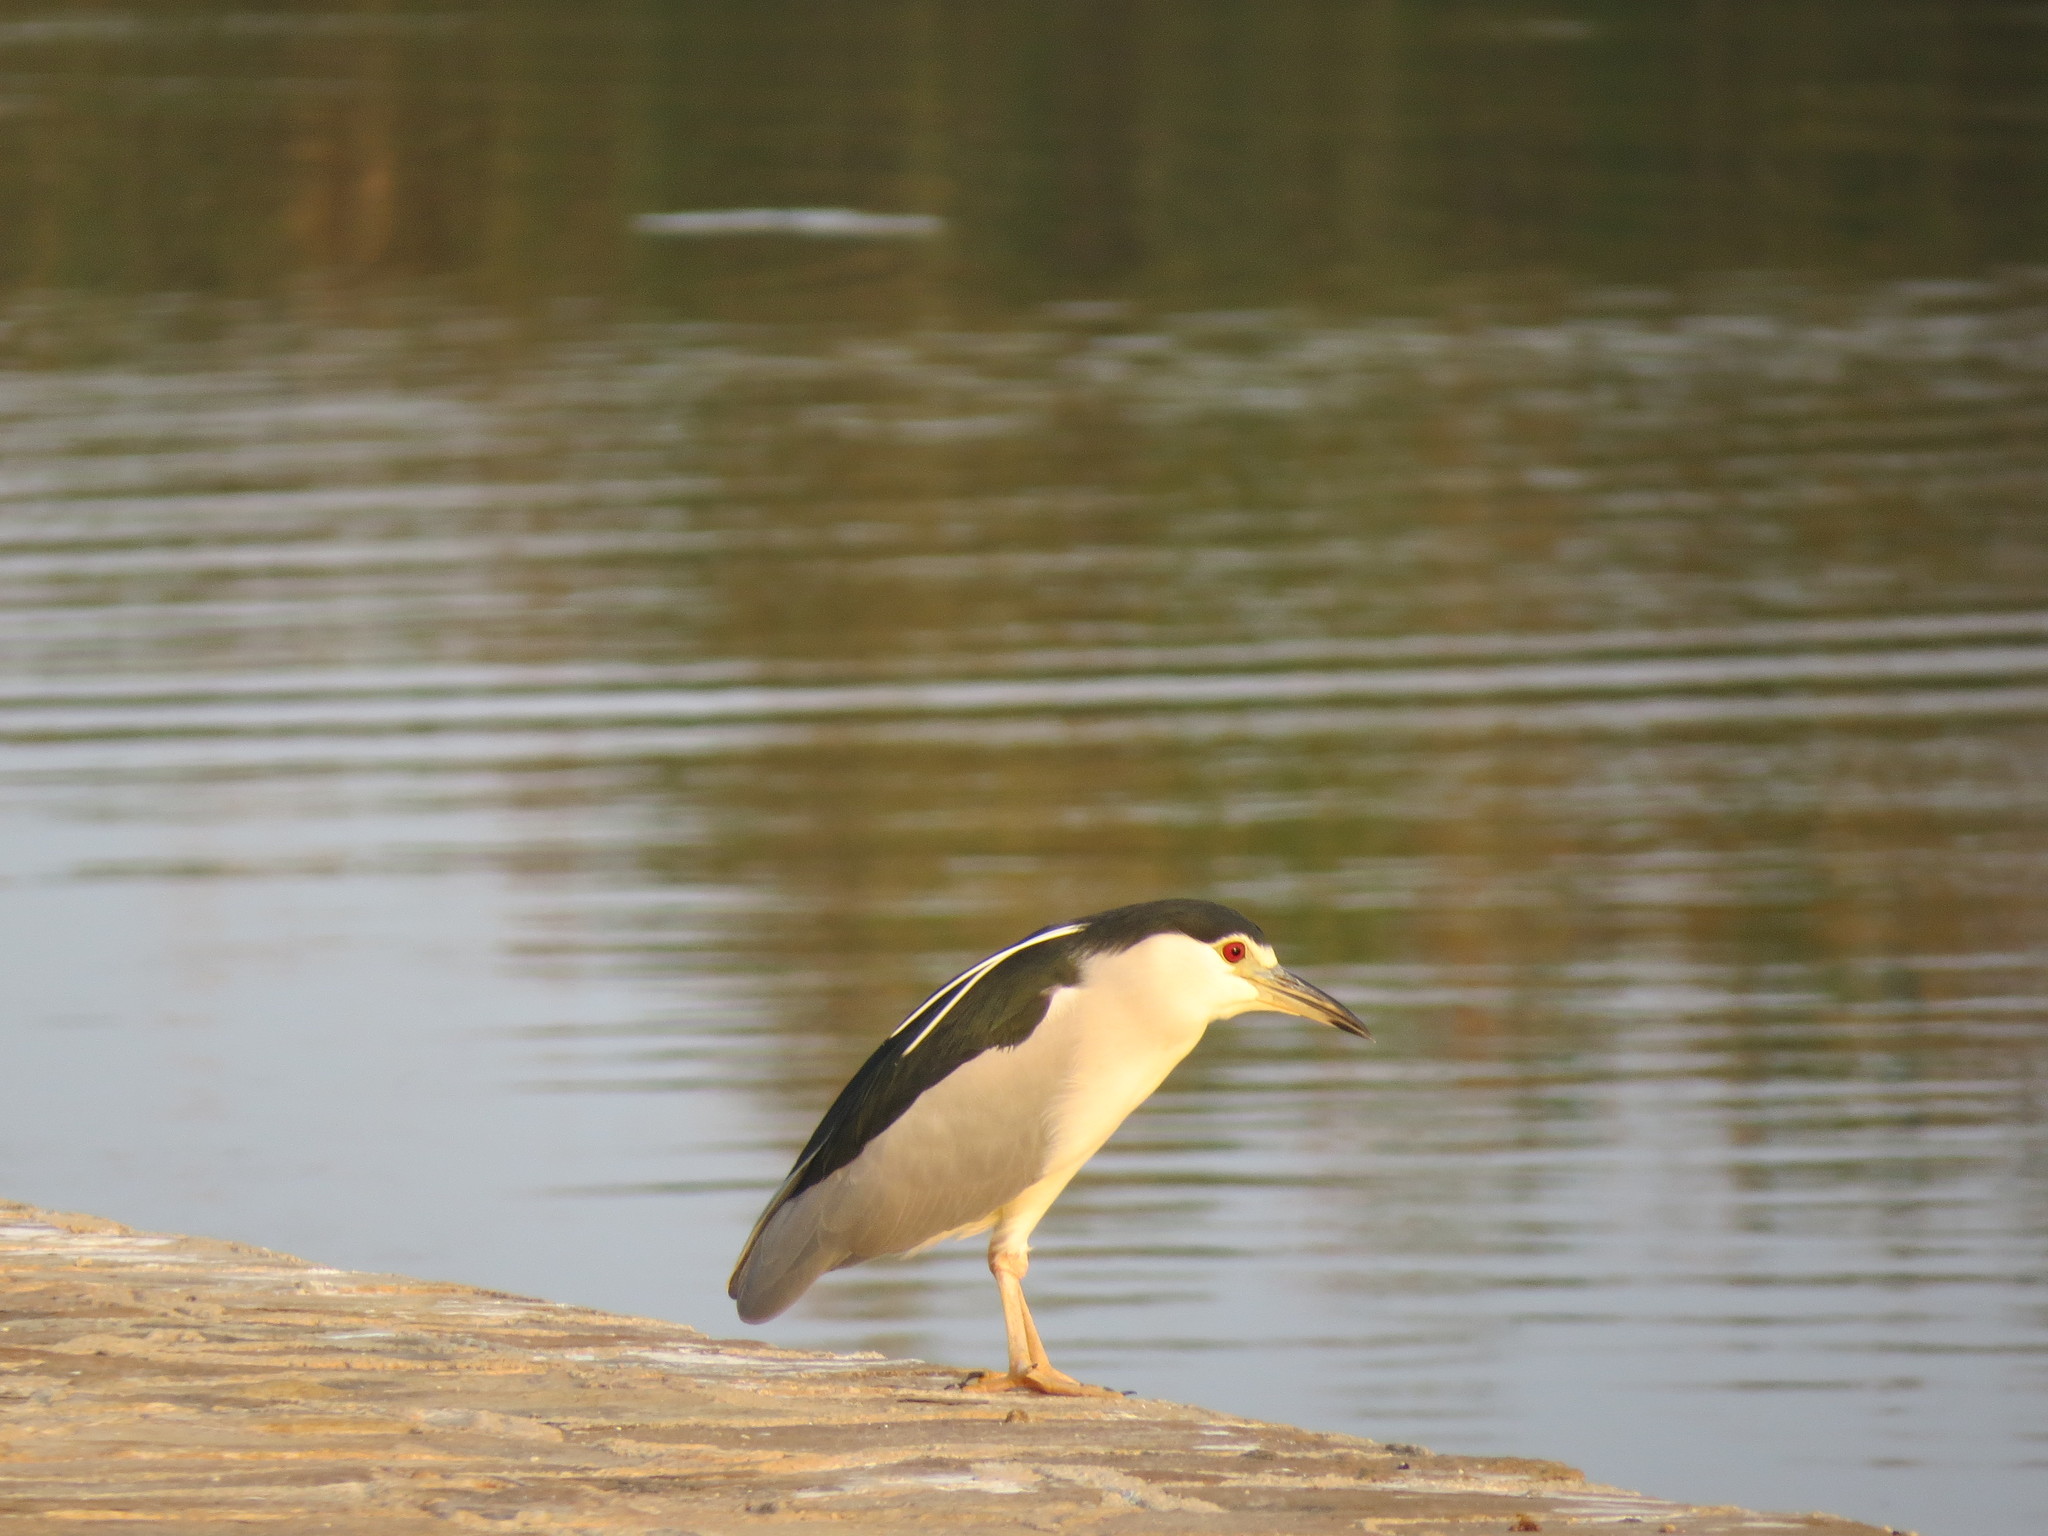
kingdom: Animalia
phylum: Chordata
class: Aves
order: Pelecaniformes
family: Ardeidae
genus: Nycticorax
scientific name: Nycticorax nycticorax
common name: Black-crowned night heron
